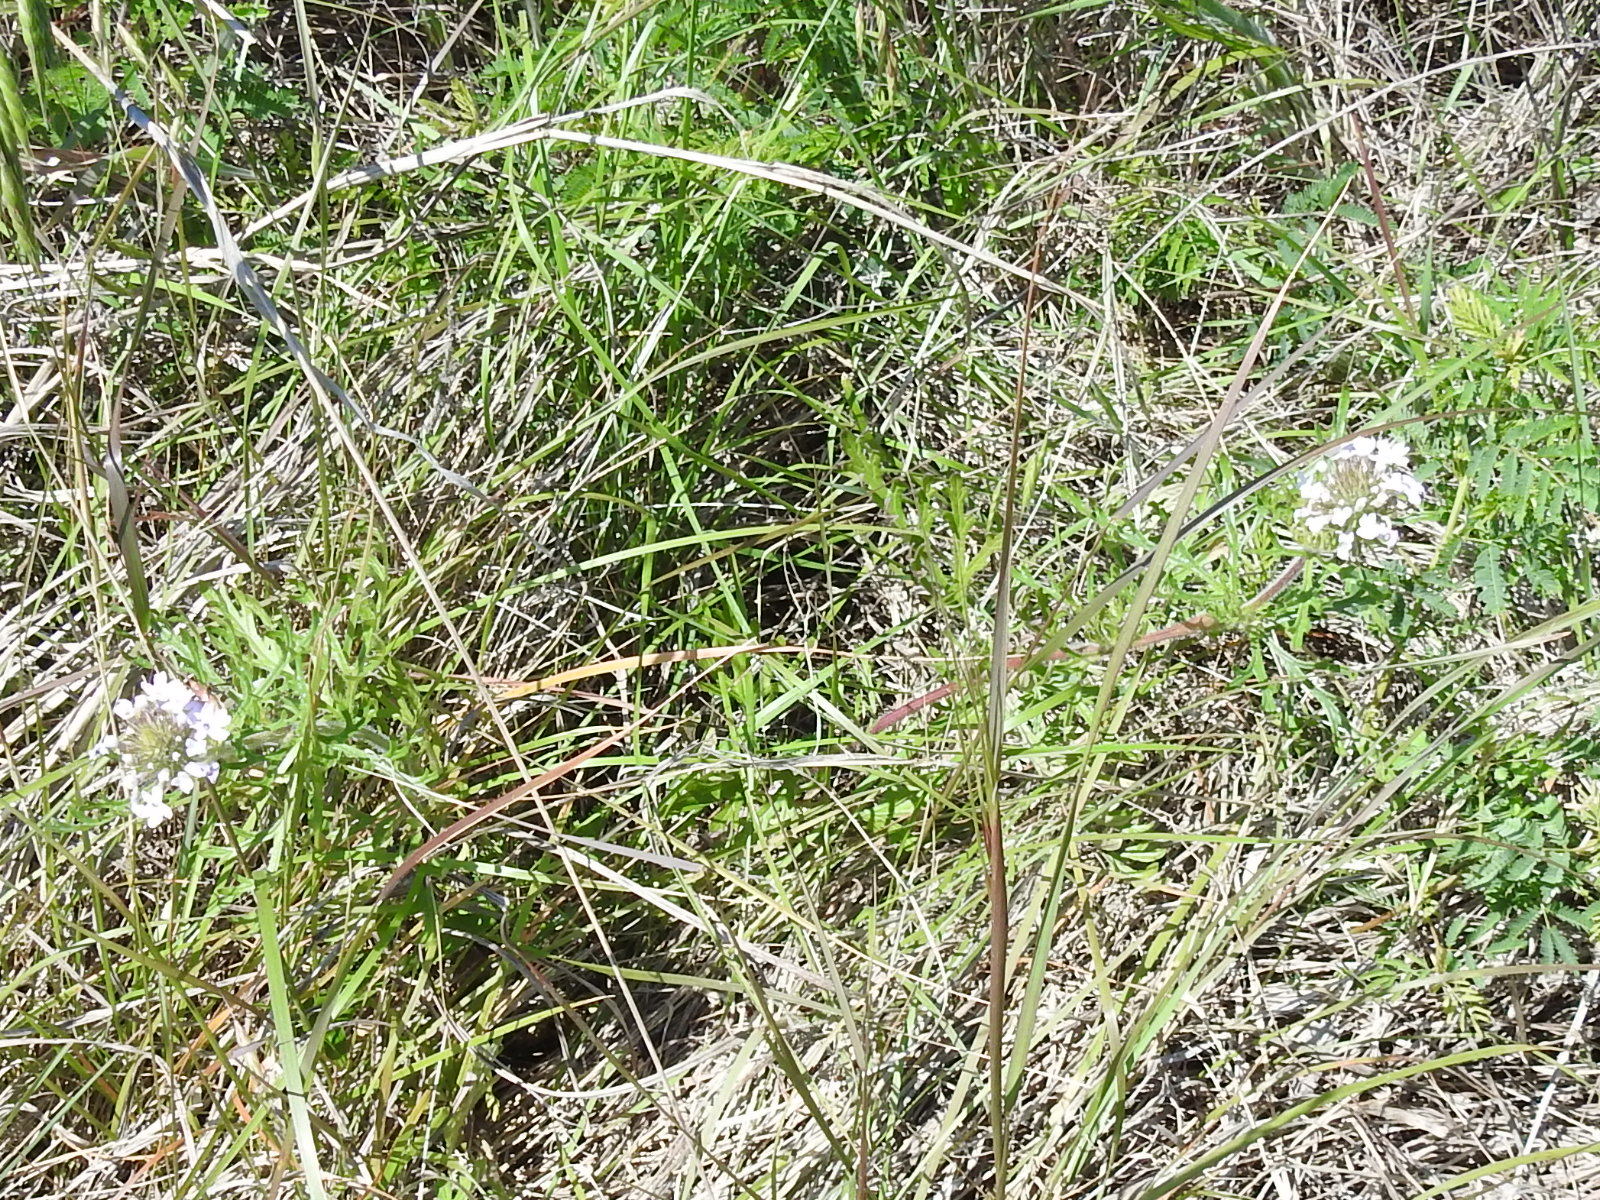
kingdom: Plantae
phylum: Tracheophyta
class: Magnoliopsida
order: Lamiales
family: Verbenaceae
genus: Verbena
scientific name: Verbena bipinnatifida
